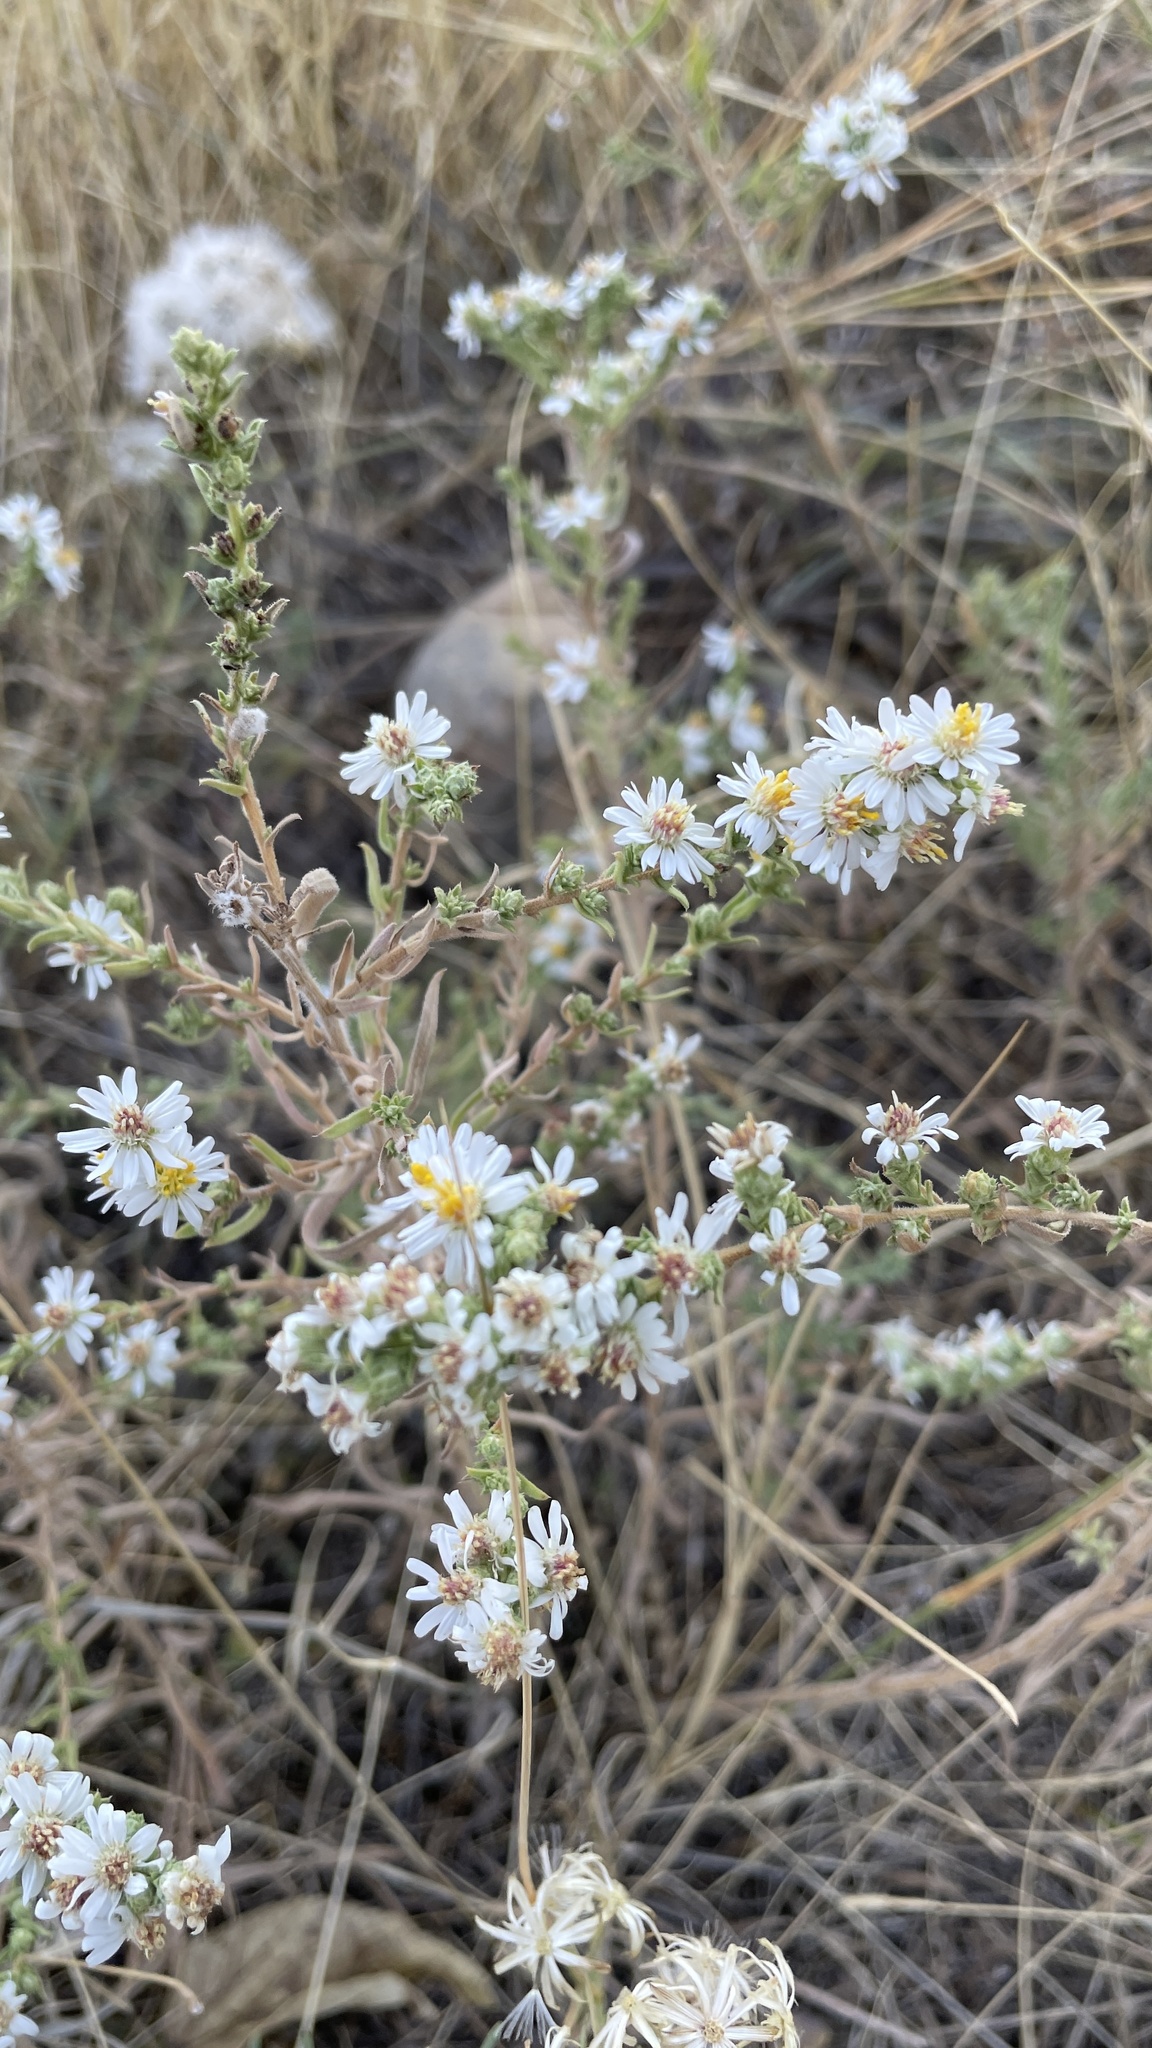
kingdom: Plantae
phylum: Tracheophyta
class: Magnoliopsida
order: Asterales
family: Asteraceae
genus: Symphyotrichum
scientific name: Symphyotrichum falcatum
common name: Creeping white prairie aster
